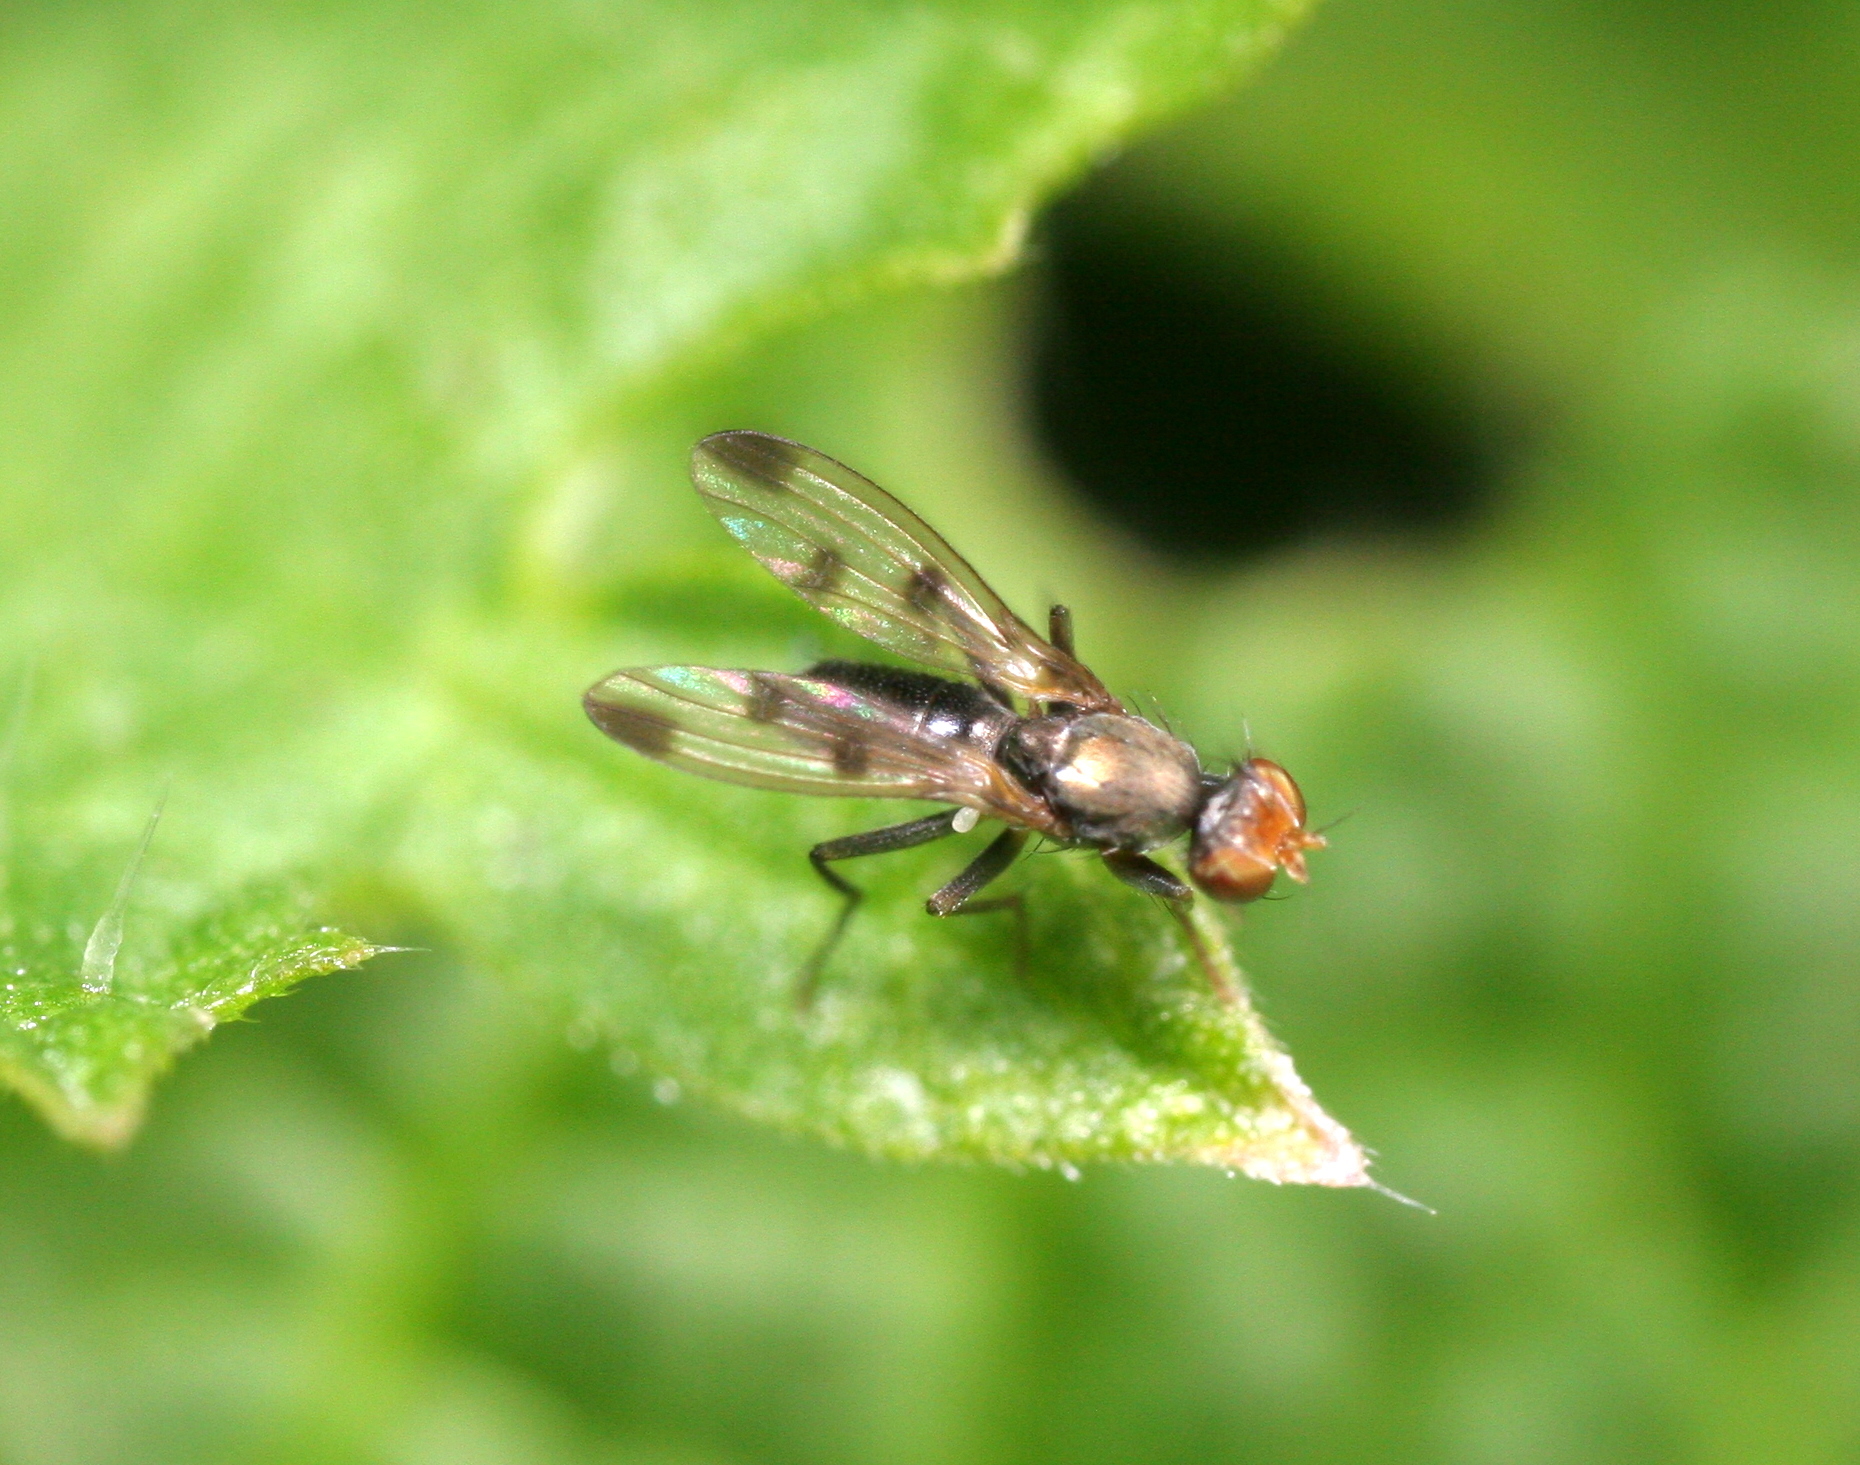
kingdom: Animalia
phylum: Arthropoda
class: Insecta
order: Diptera
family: Opomyzidae
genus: Geomyza
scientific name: Geomyza tripunctata
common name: Cereal fly
